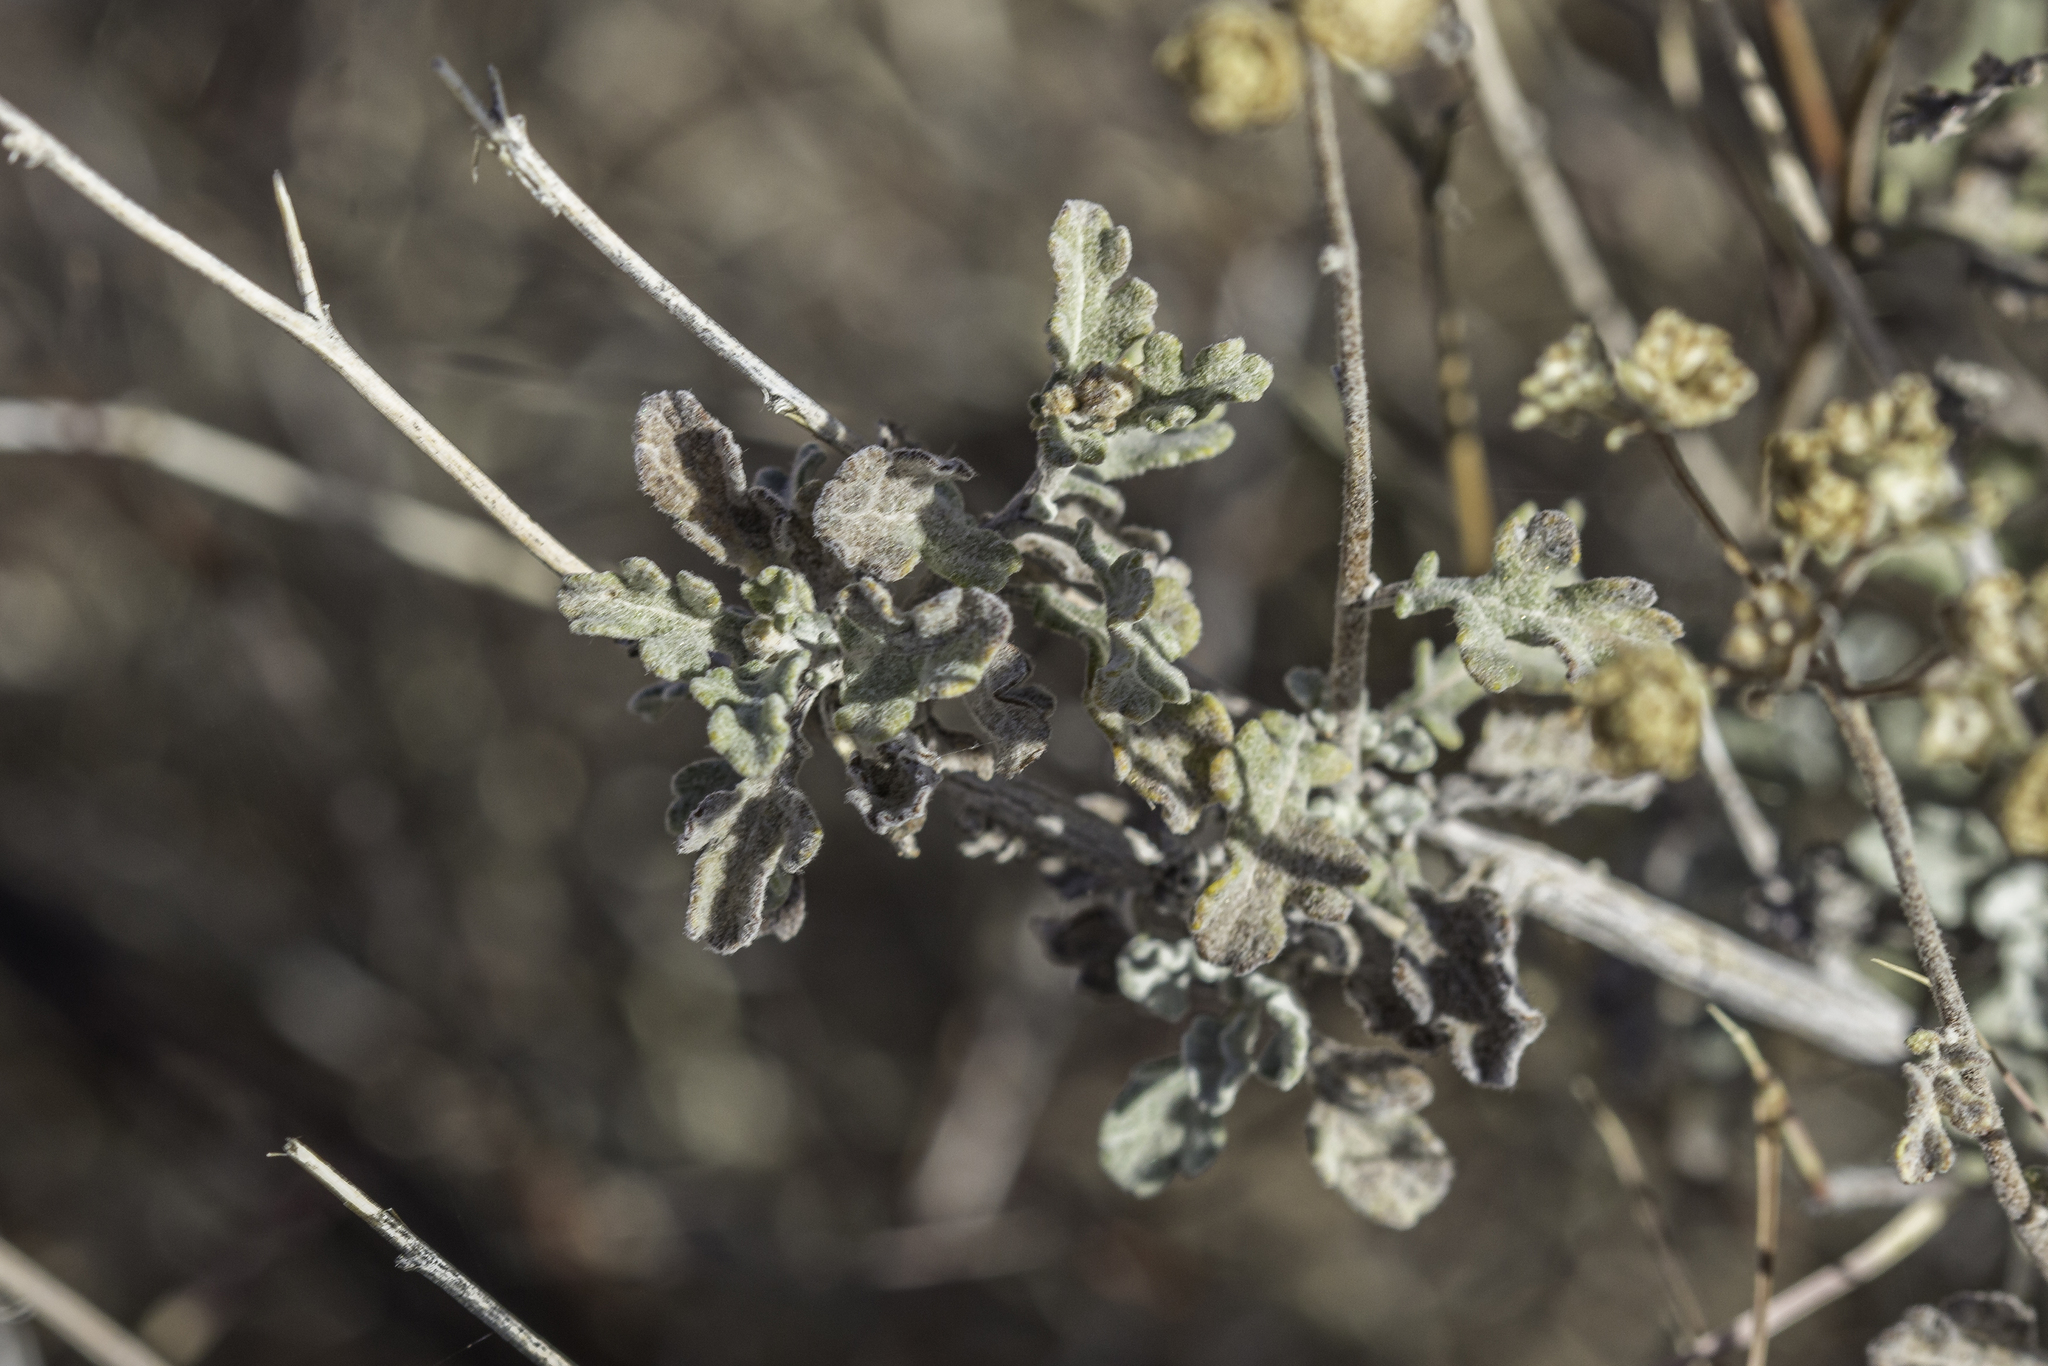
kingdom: Plantae
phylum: Tracheophyta
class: Magnoliopsida
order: Asterales
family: Asteraceae
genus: Parthenium
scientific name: Parthenium incanum
